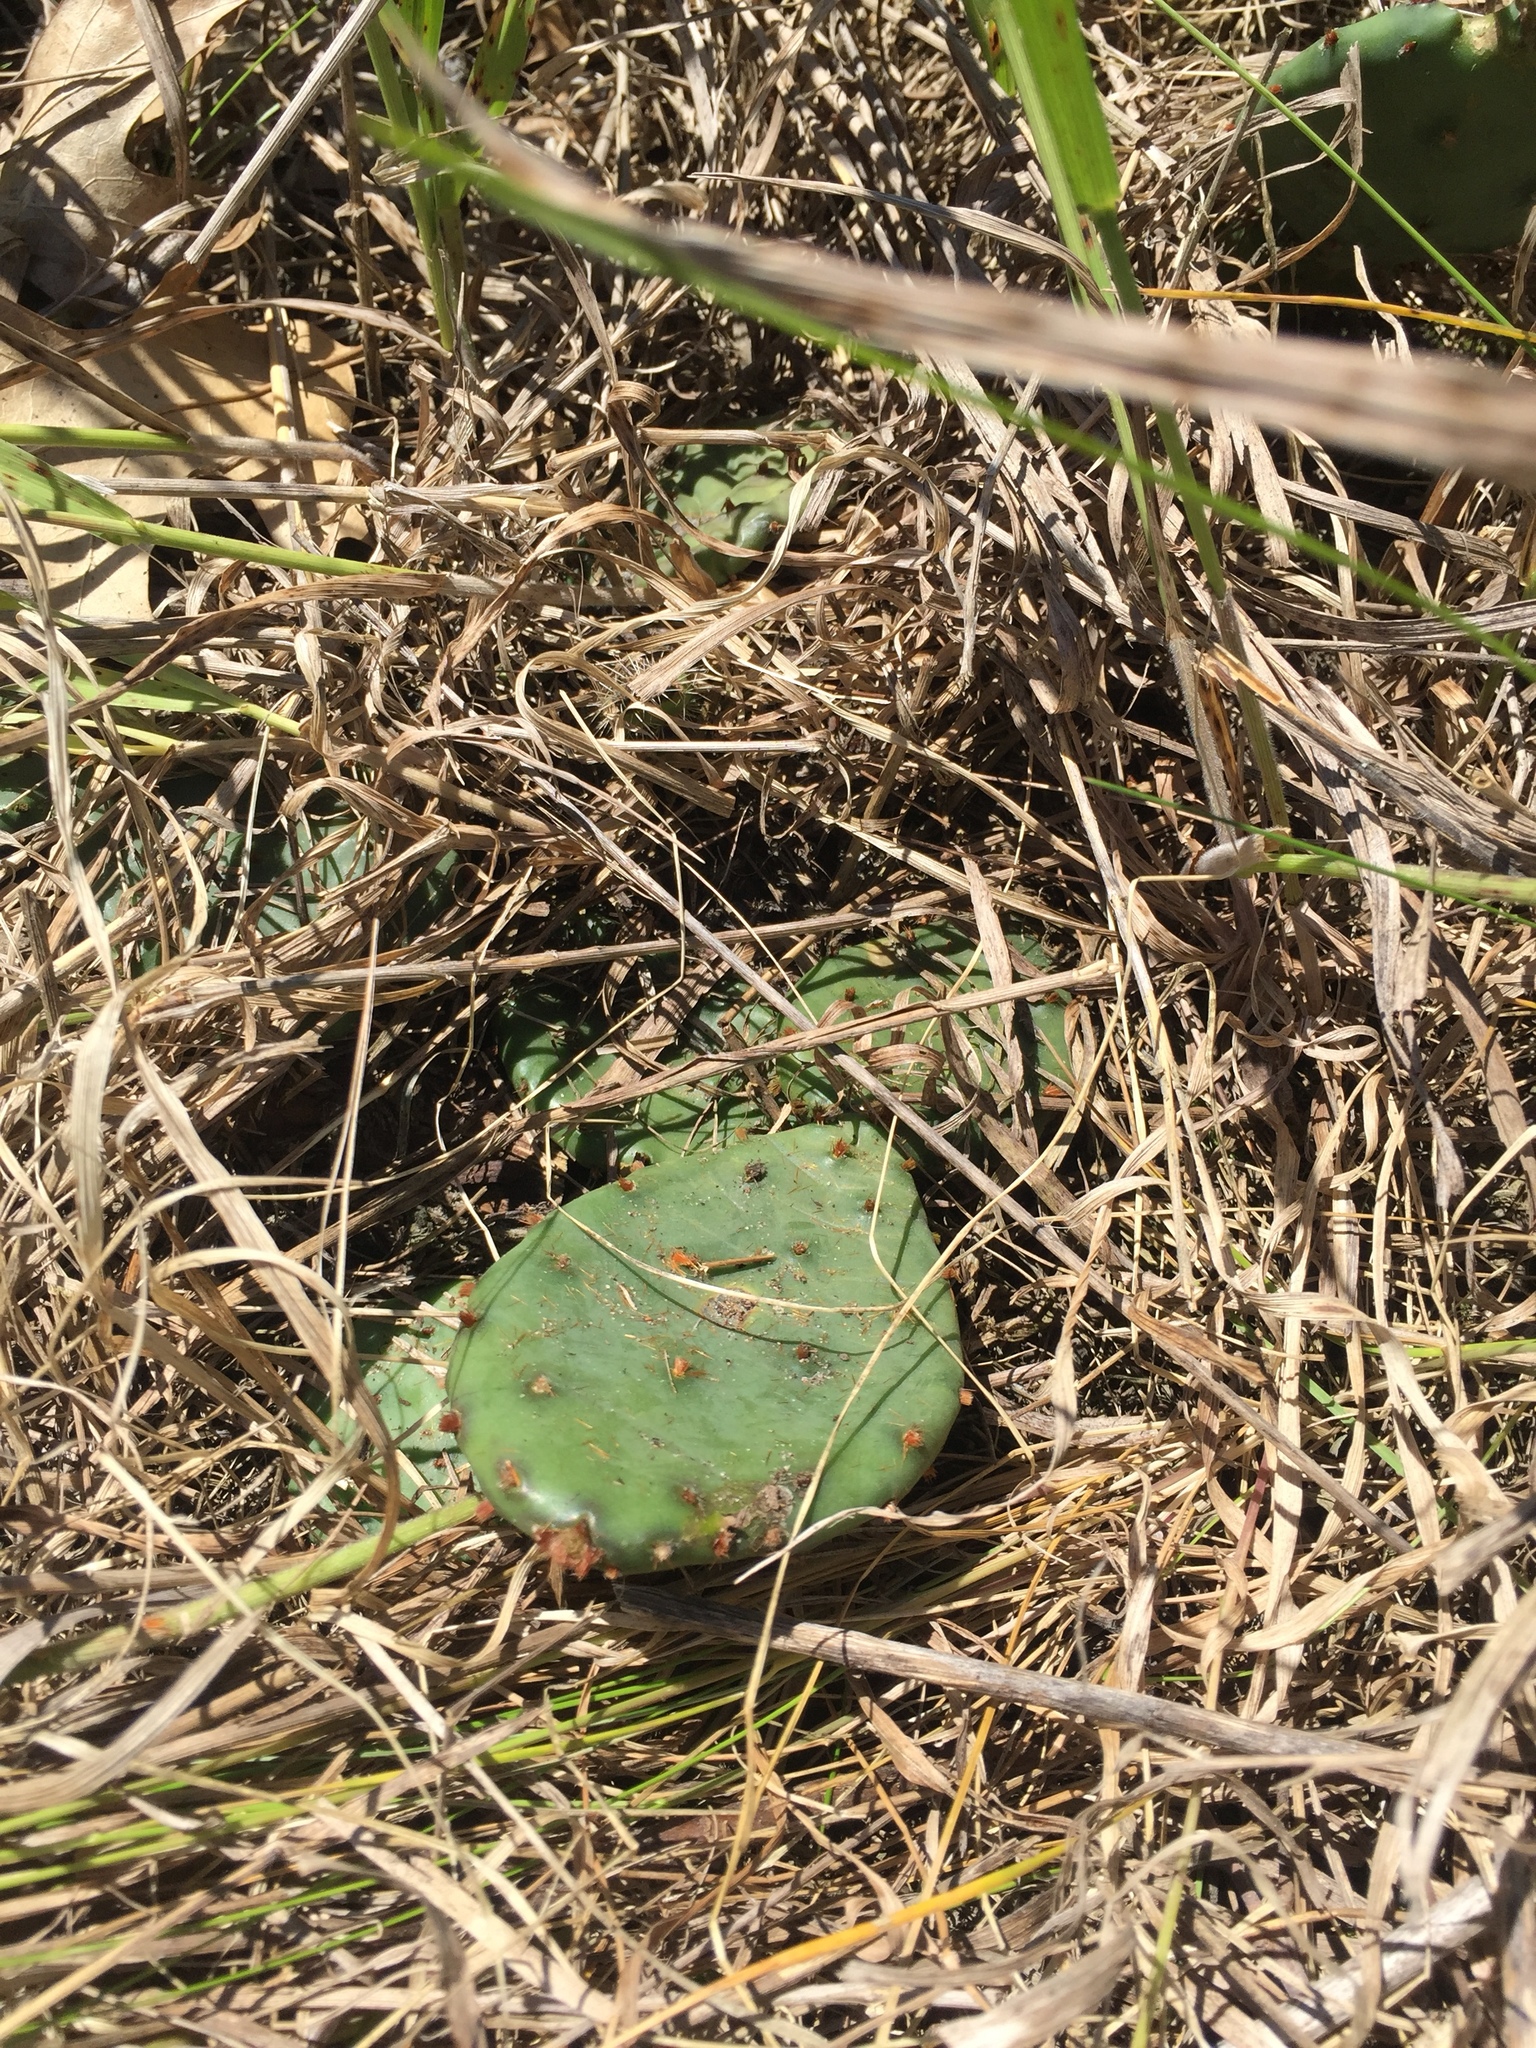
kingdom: Plantae
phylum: Tracheophyta
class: Magnoliopsida
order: Caryophyllales
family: Cactaceae
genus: Opuntia
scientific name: Opuntia humifusa
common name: Eastern prickly-pear
